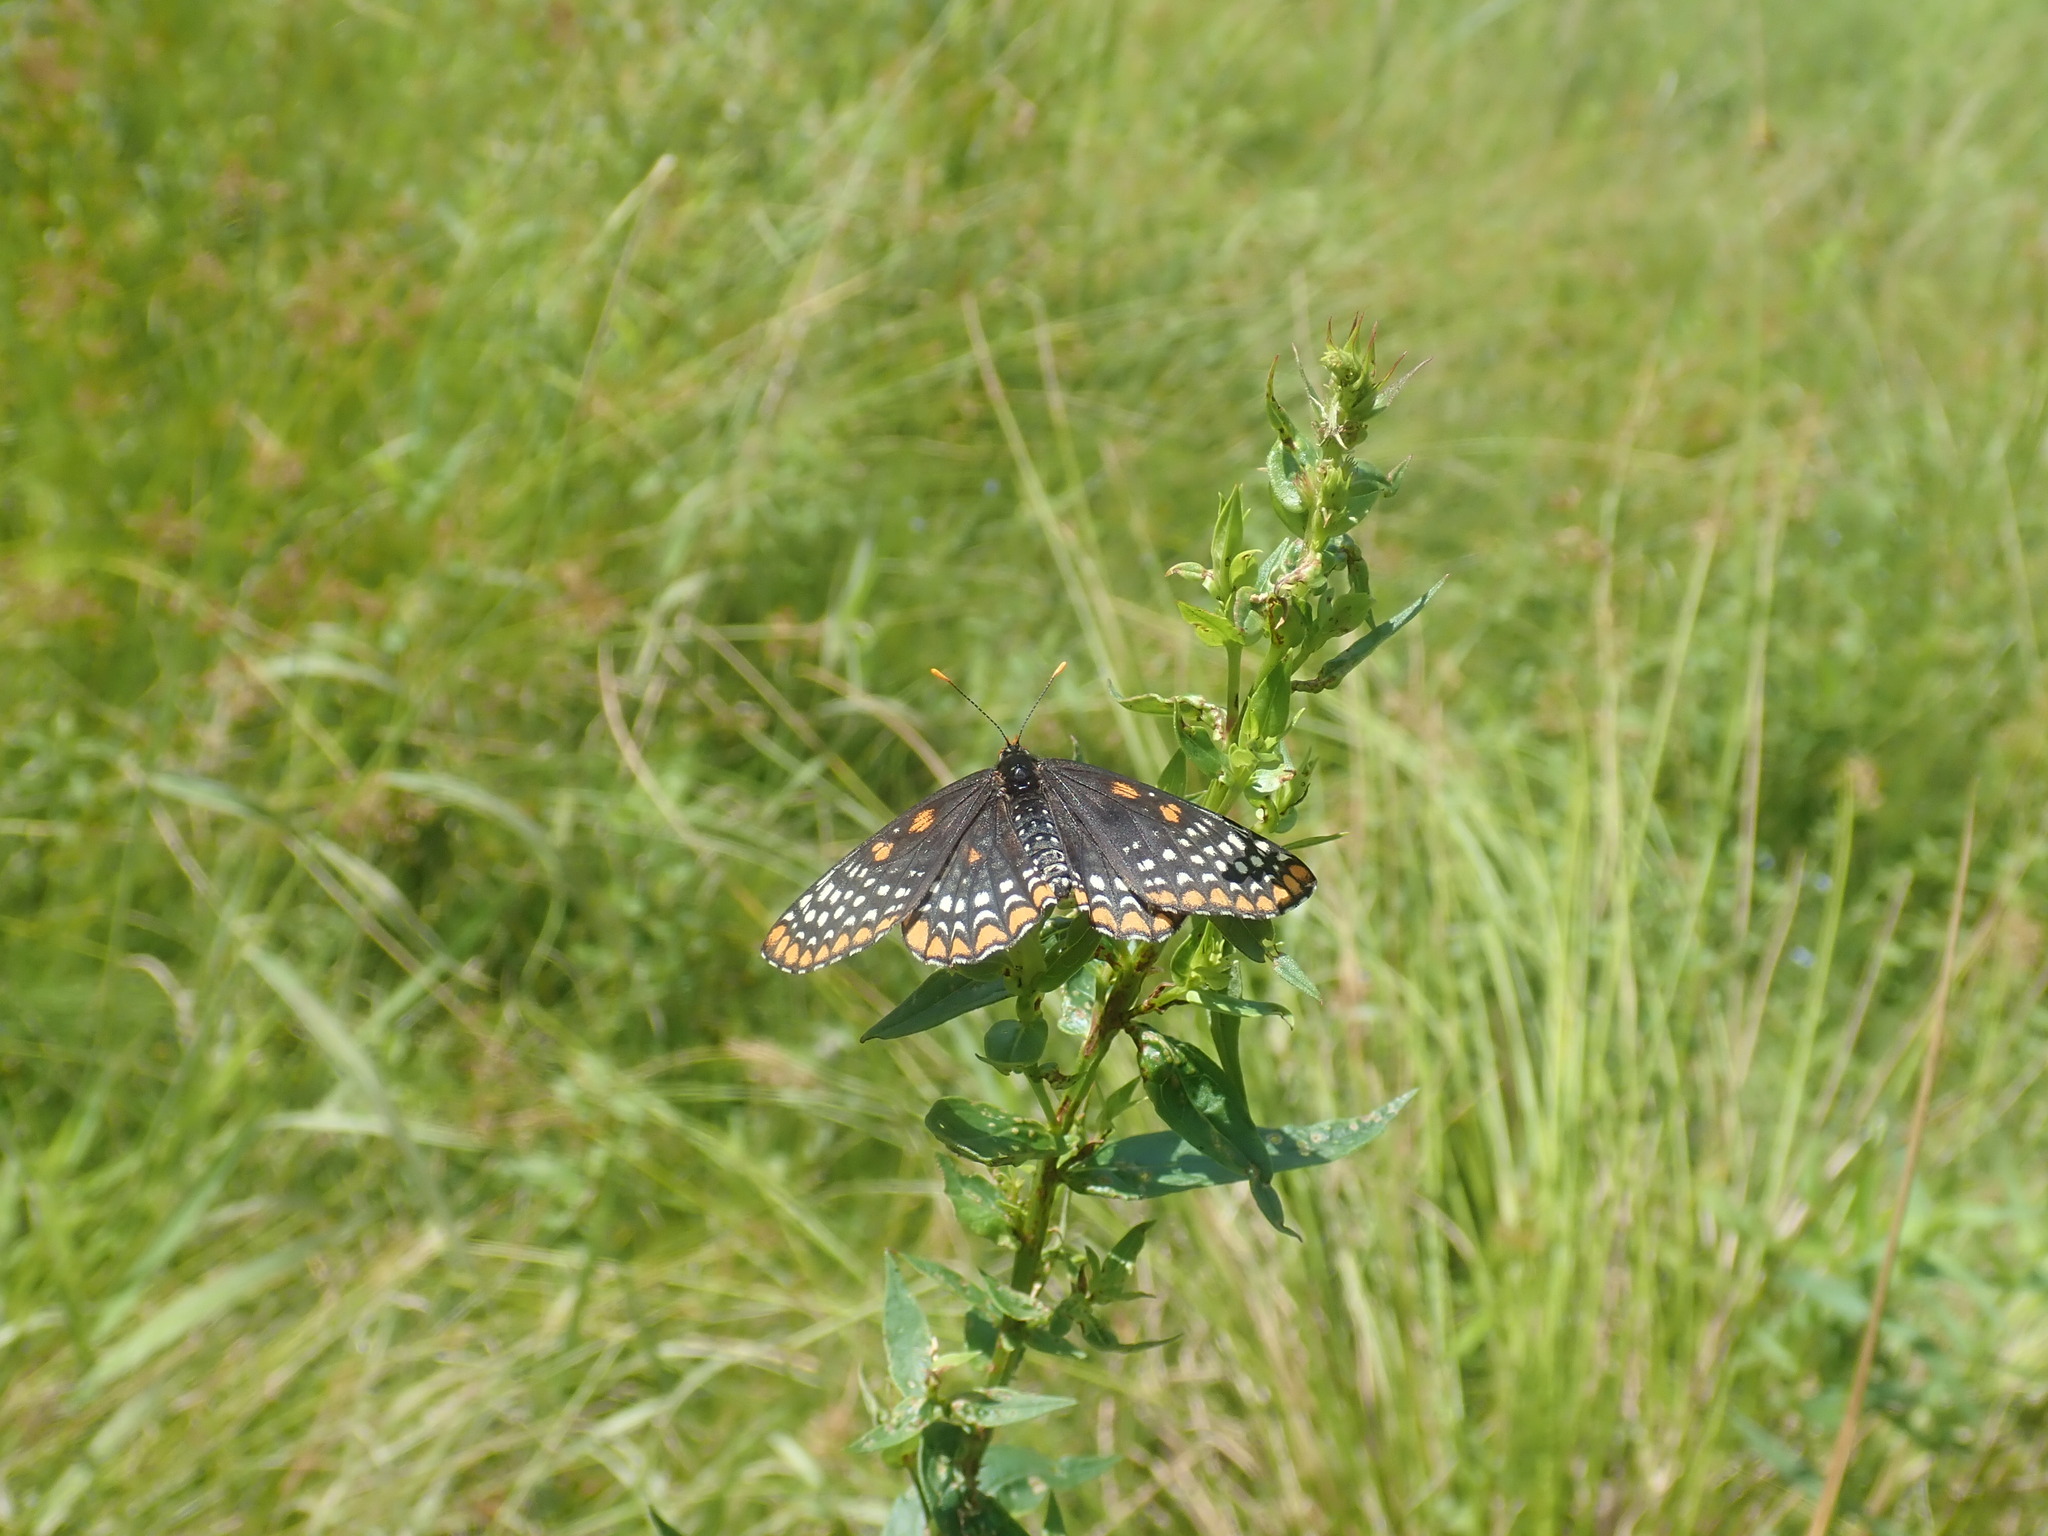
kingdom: Animalia
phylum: Arthropoda
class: Insecta
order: Lepidoptera
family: Nymphalidae
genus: Euphydryas
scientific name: Euphydryas phaeton
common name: Baltimore checkerspot
